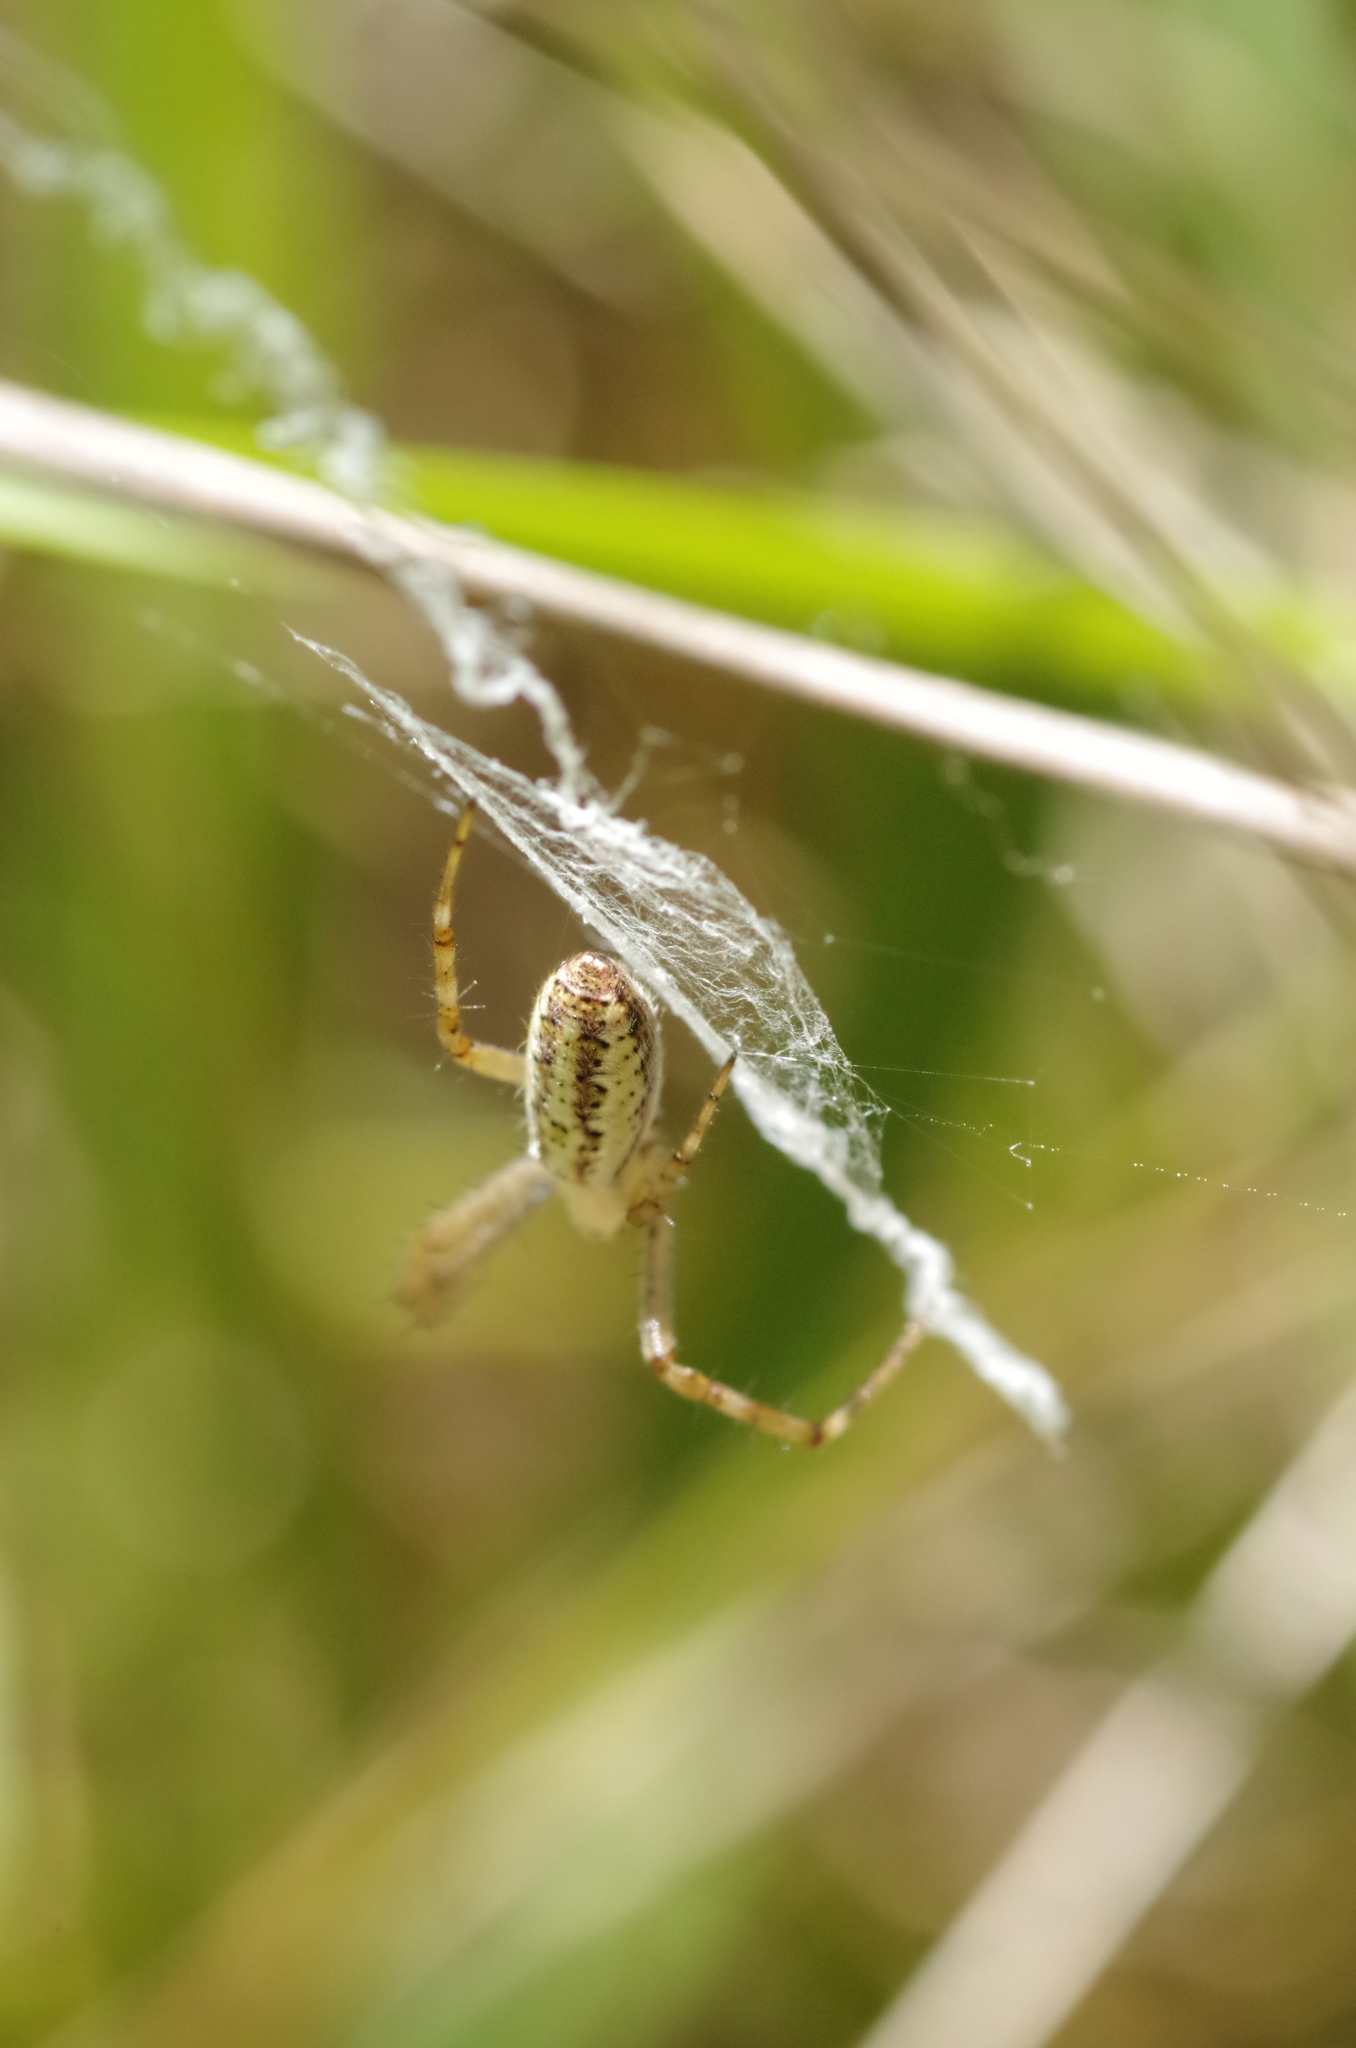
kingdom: Animalia
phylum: Arthropoda
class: Arachnida
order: Araneae
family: Araneidae
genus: Argiope
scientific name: Argiope bruennichi
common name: Wasp spider
